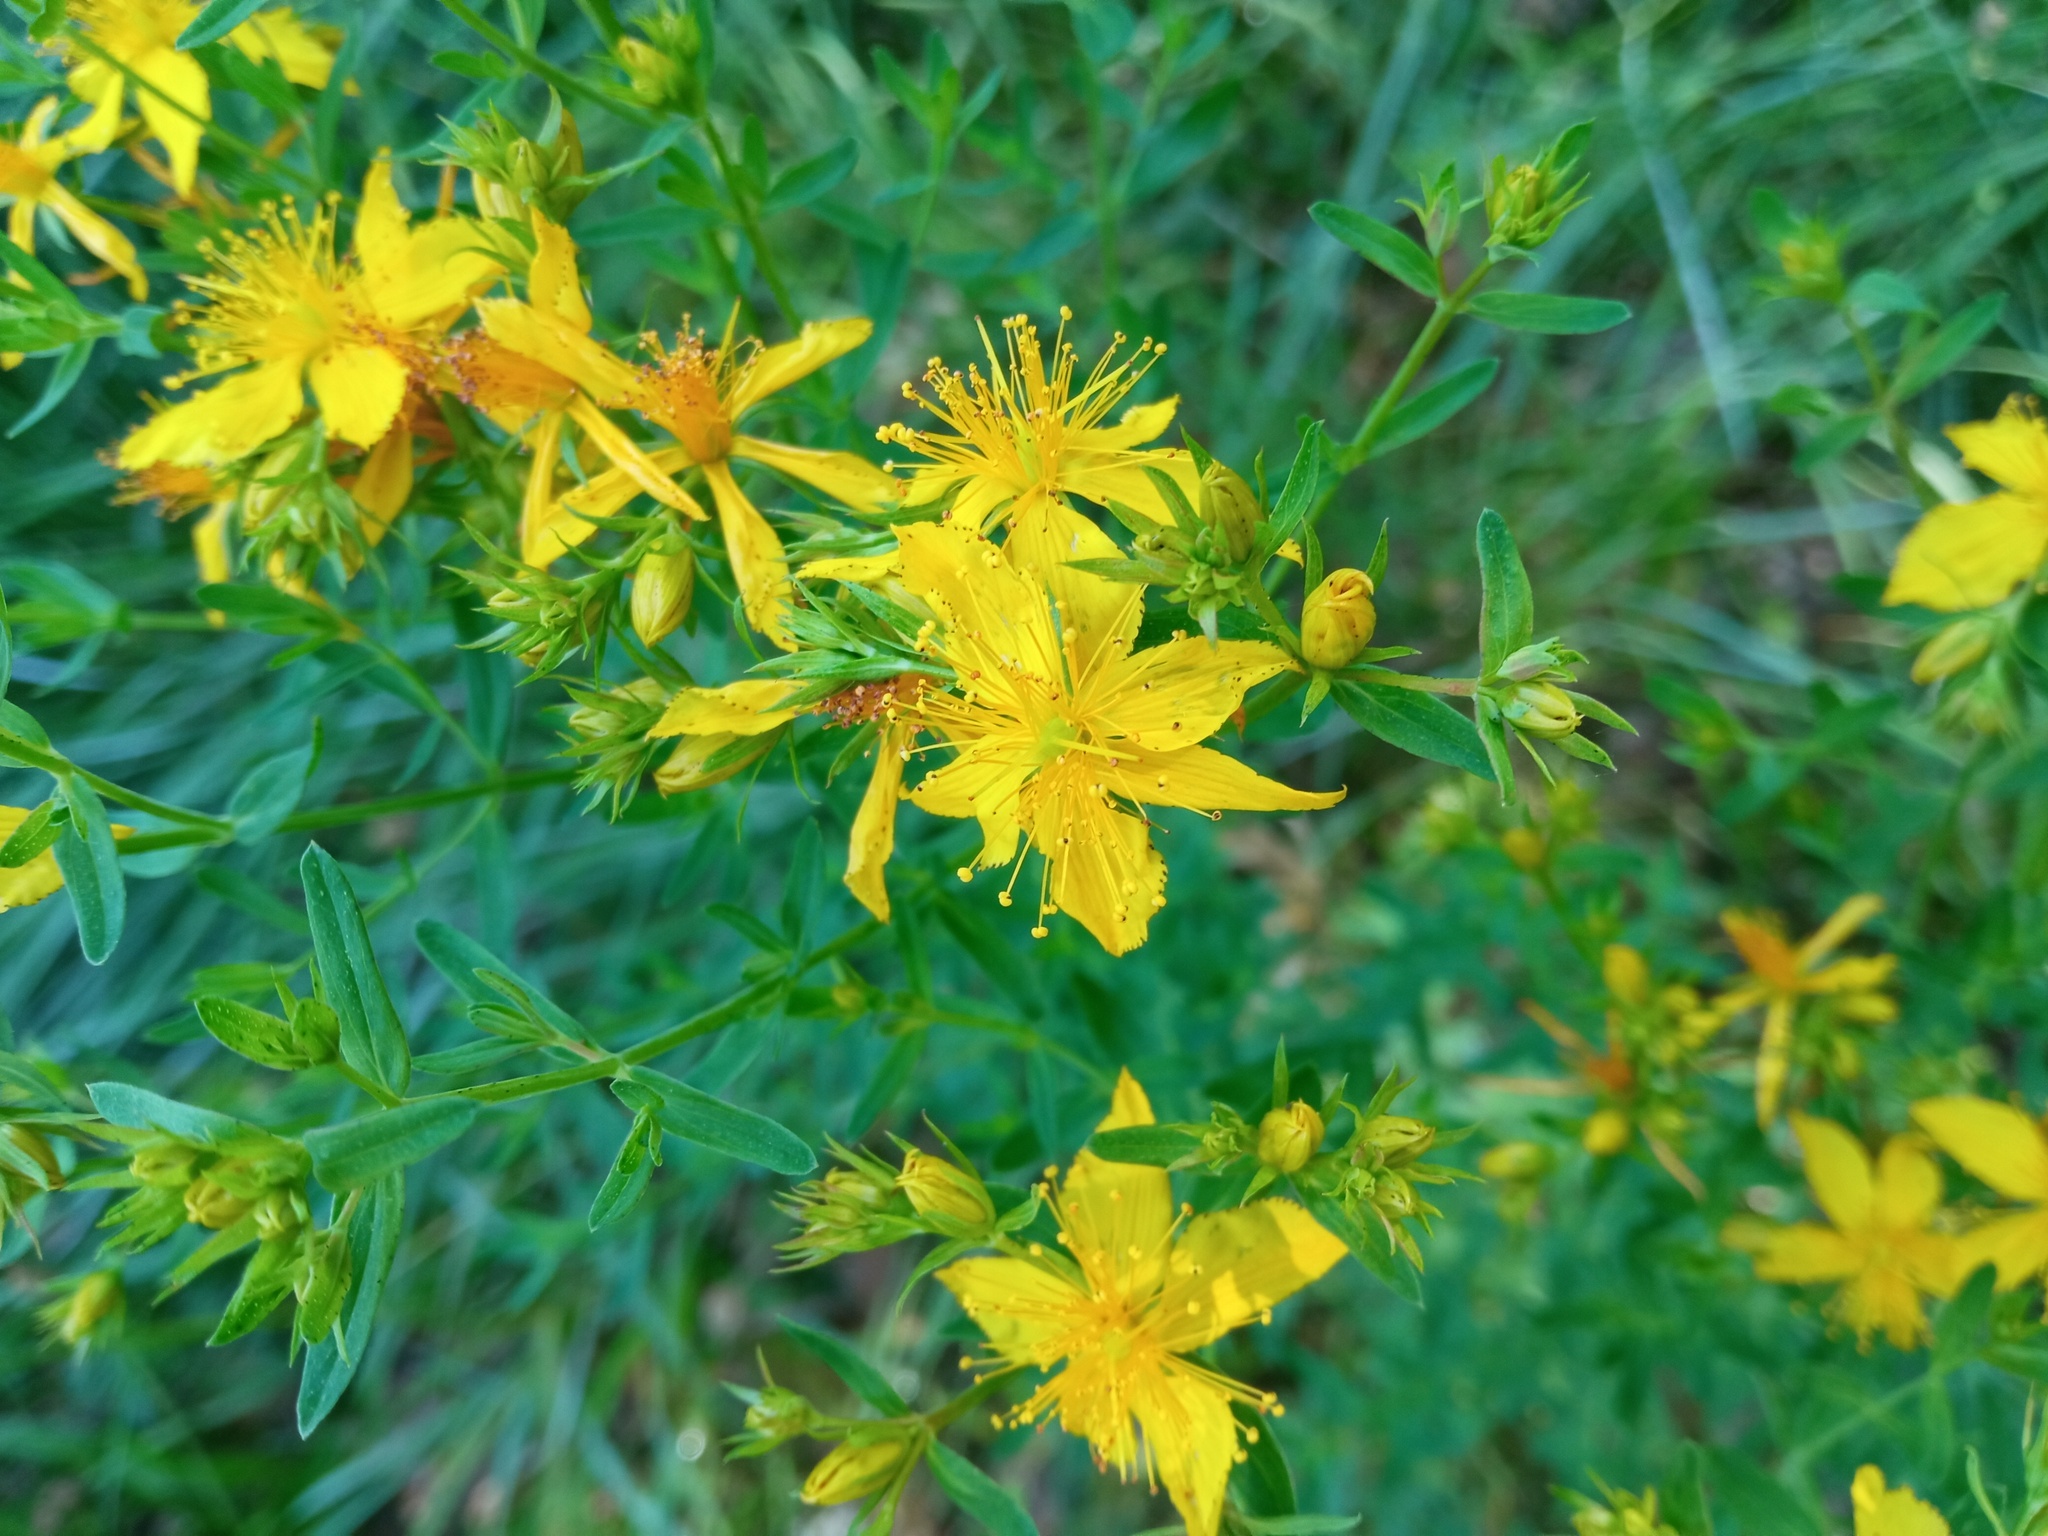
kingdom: Plantae
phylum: Tracheophyta
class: Magnoliopsida
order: Malpighiales
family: Hypericaceae
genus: Hypericum
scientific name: Hypericum perforatum
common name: Common st. johnswort
